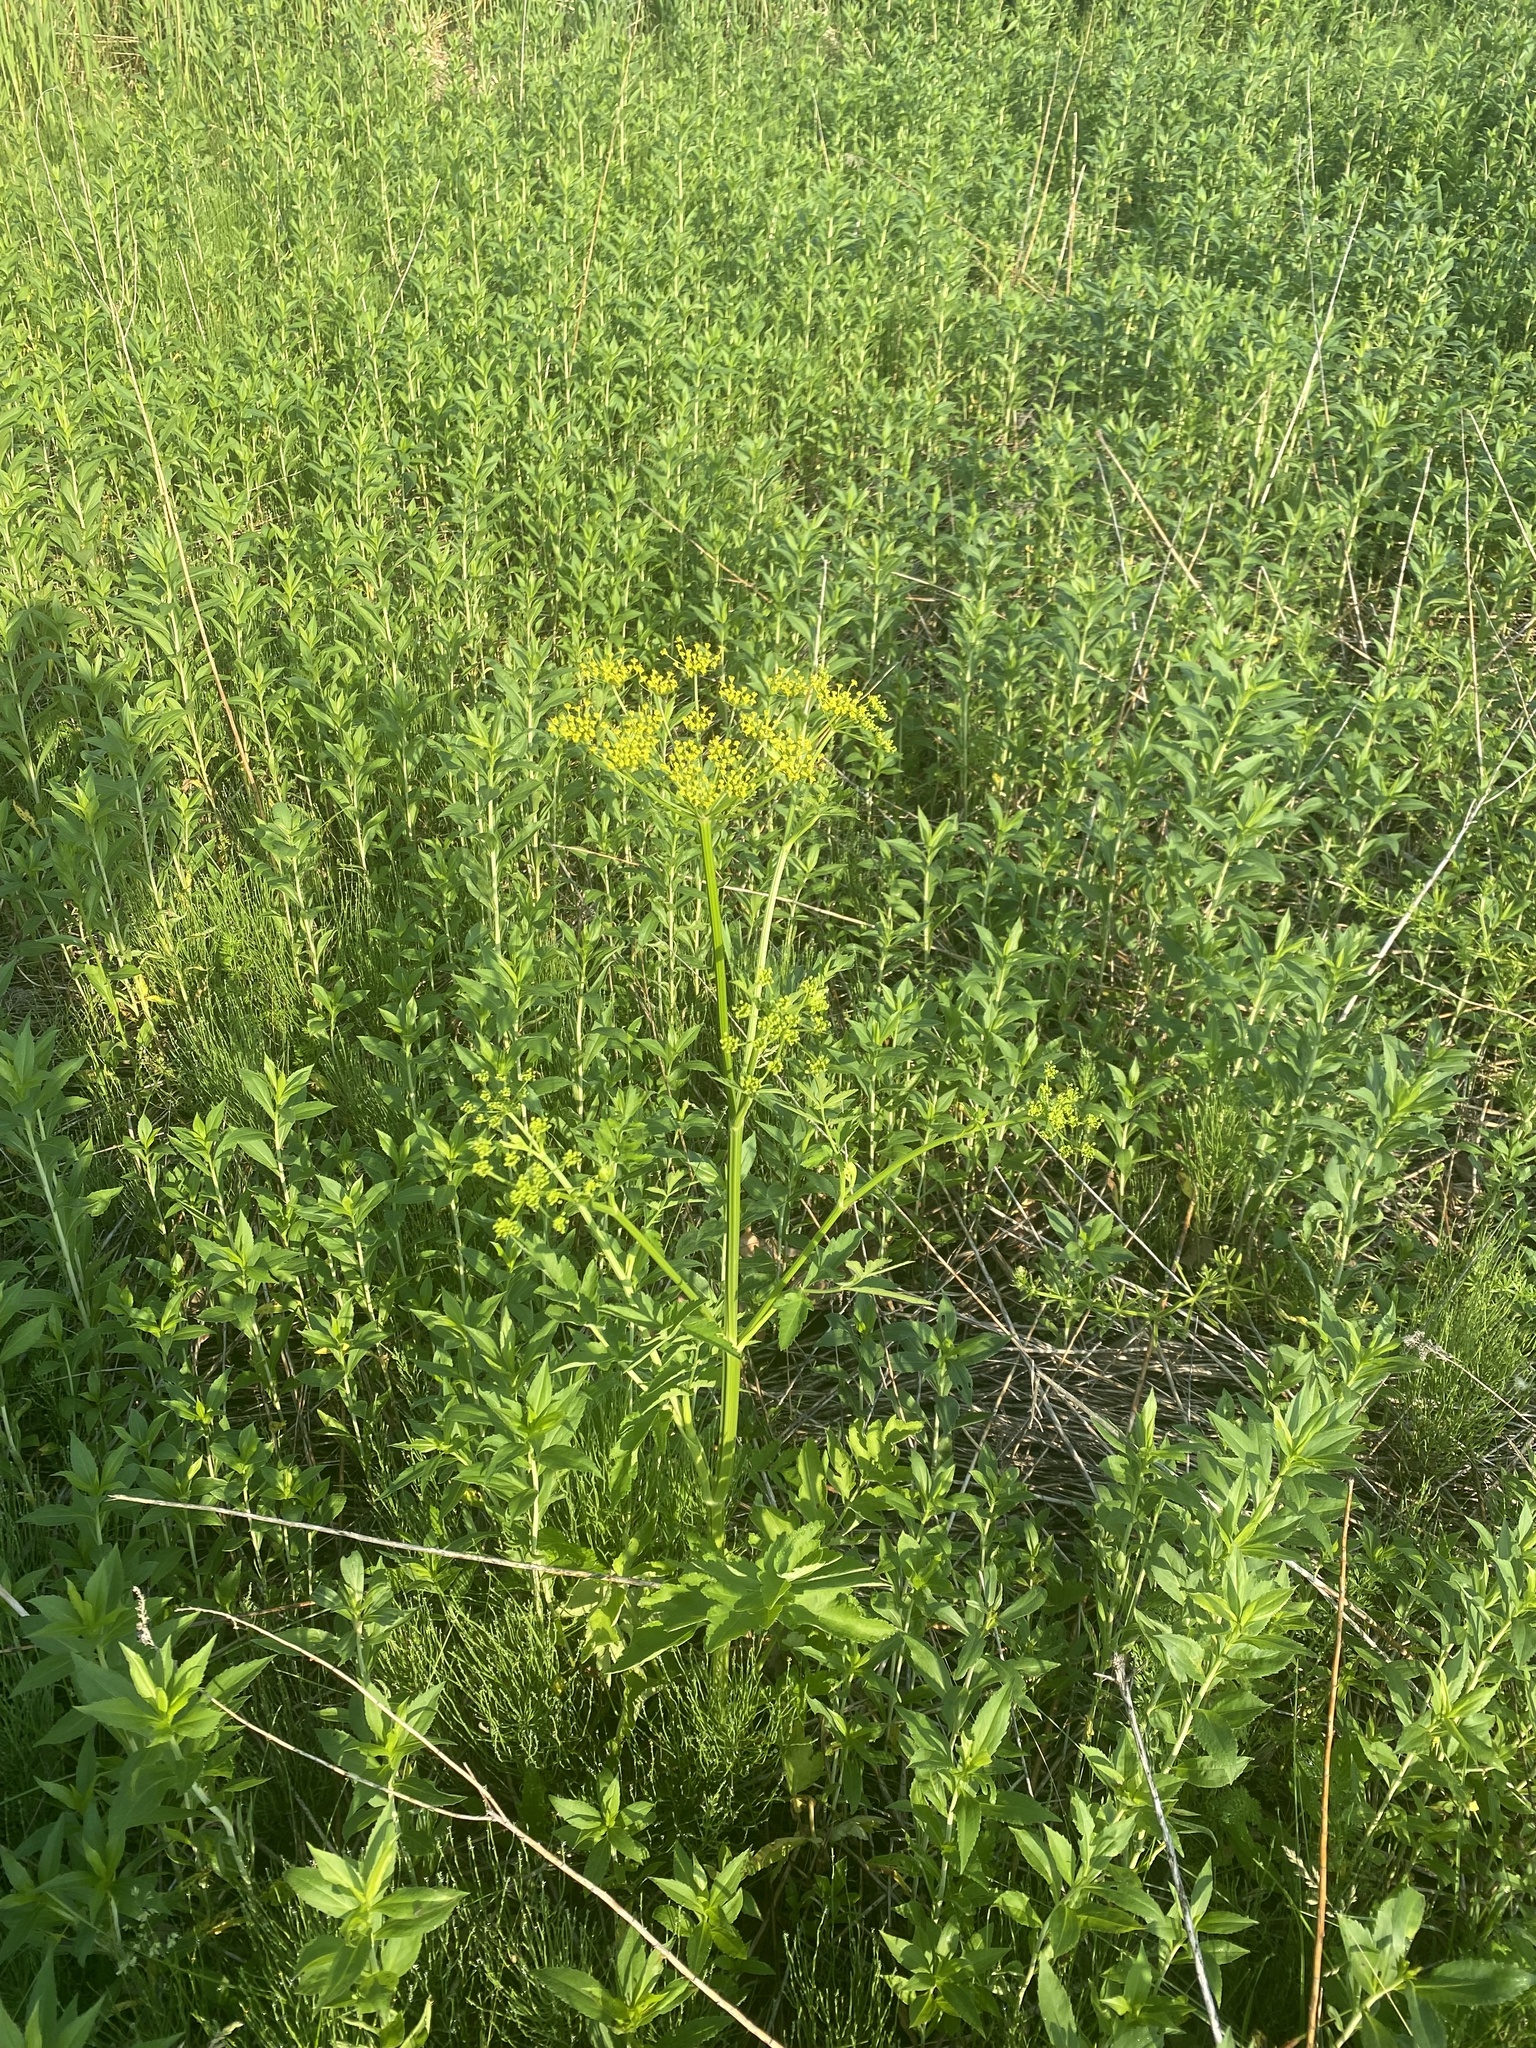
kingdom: Plantae
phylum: Tracheophyta
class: Magnoliopsida
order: Apiales
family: Apiaceae
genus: Pastinaca
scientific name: Pastinaca sativa
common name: Wild parsnip
